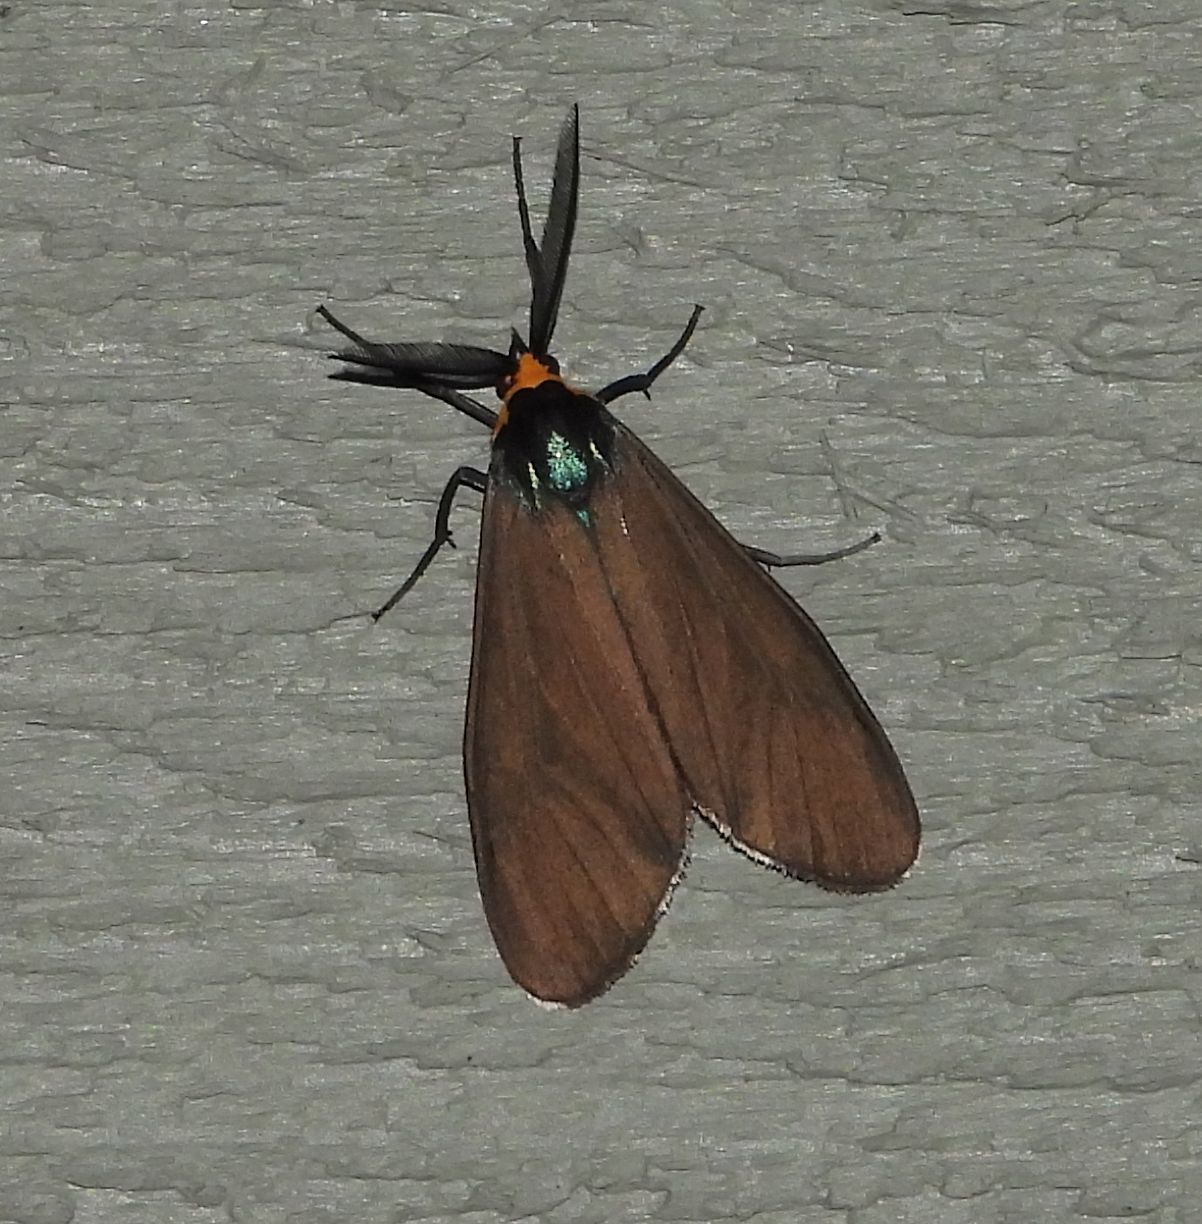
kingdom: Animalia
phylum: Arthropoda
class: Insecta
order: Lepidoptera
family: Erebidae
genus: Ctenucha
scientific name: Ctenucha virginica
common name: Virginia ctenucha moth
